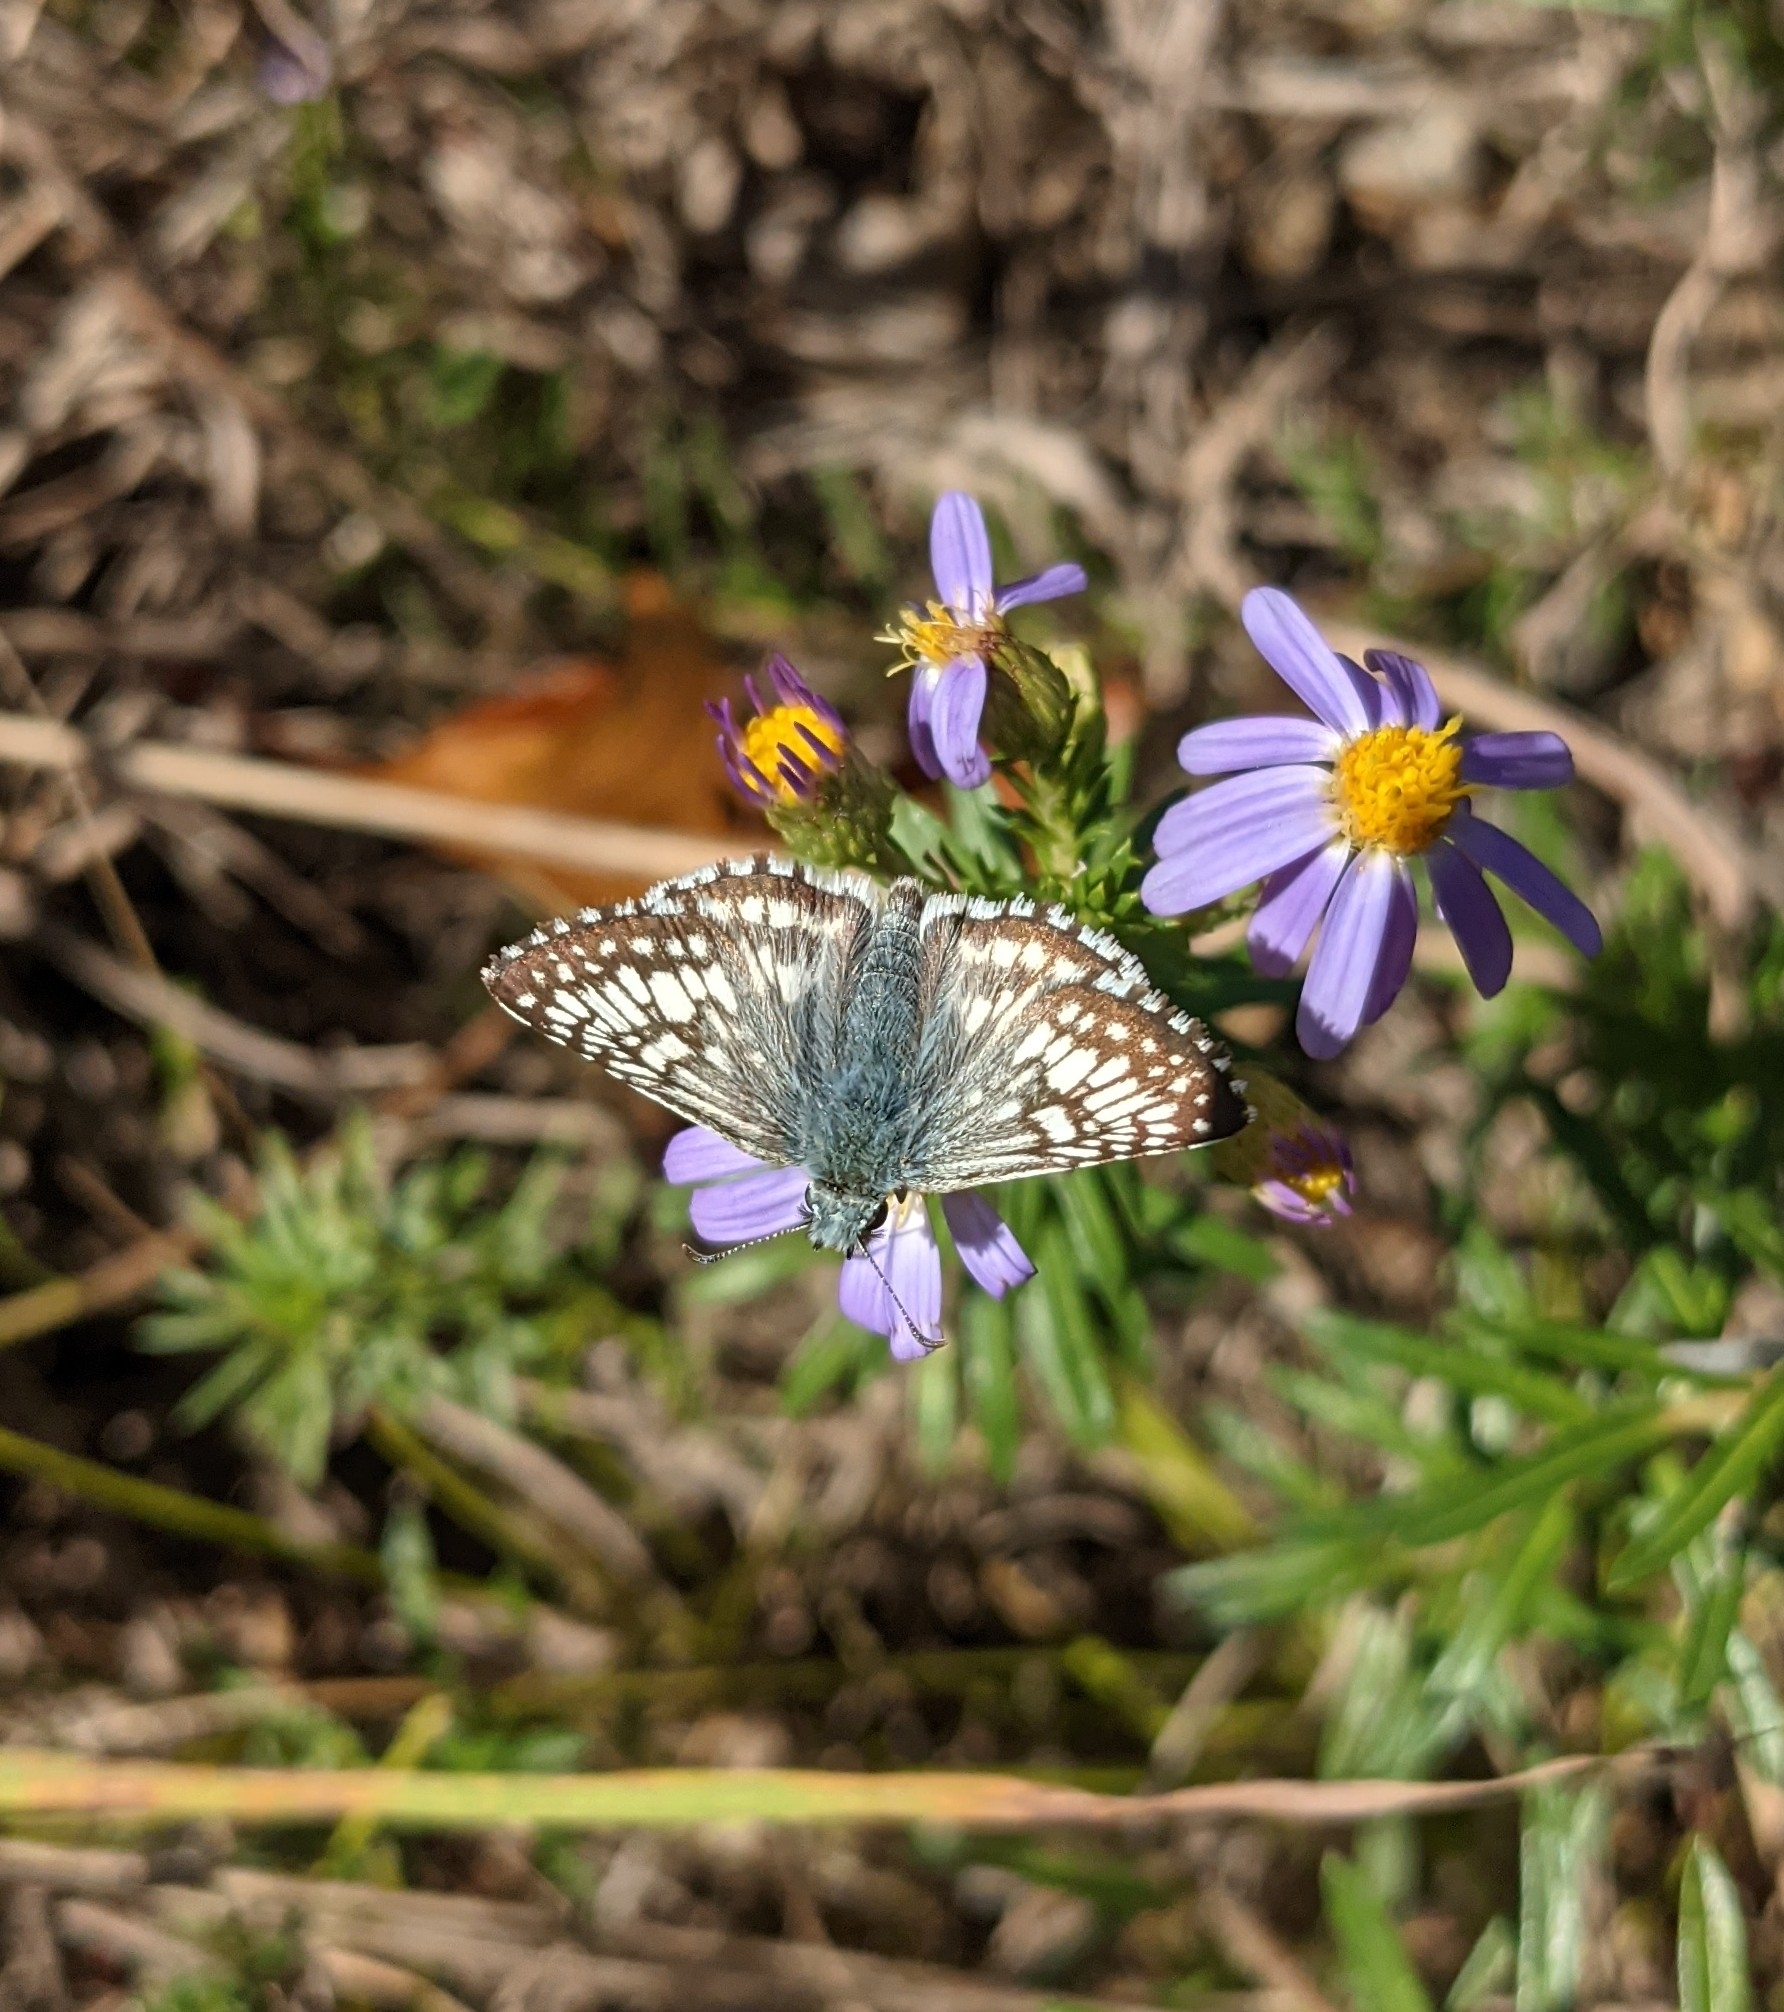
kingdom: Animalia
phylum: Arthropoda
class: Insecta
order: Lepidoptera
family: Hesperiidae
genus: Burnsius
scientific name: Burnsius communis
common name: Common checkered-skipper
